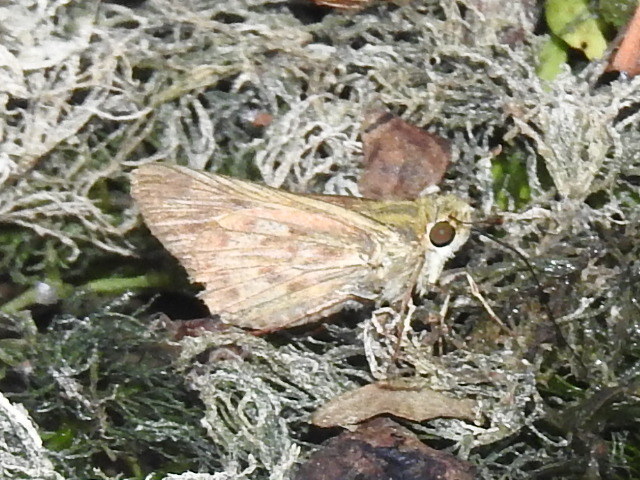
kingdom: Animalia
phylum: Arthropoda
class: Insecta
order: Lepidoptera
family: Hesperiidae
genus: Hylephila
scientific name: Hylephila phyleus
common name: Fiery skipper
